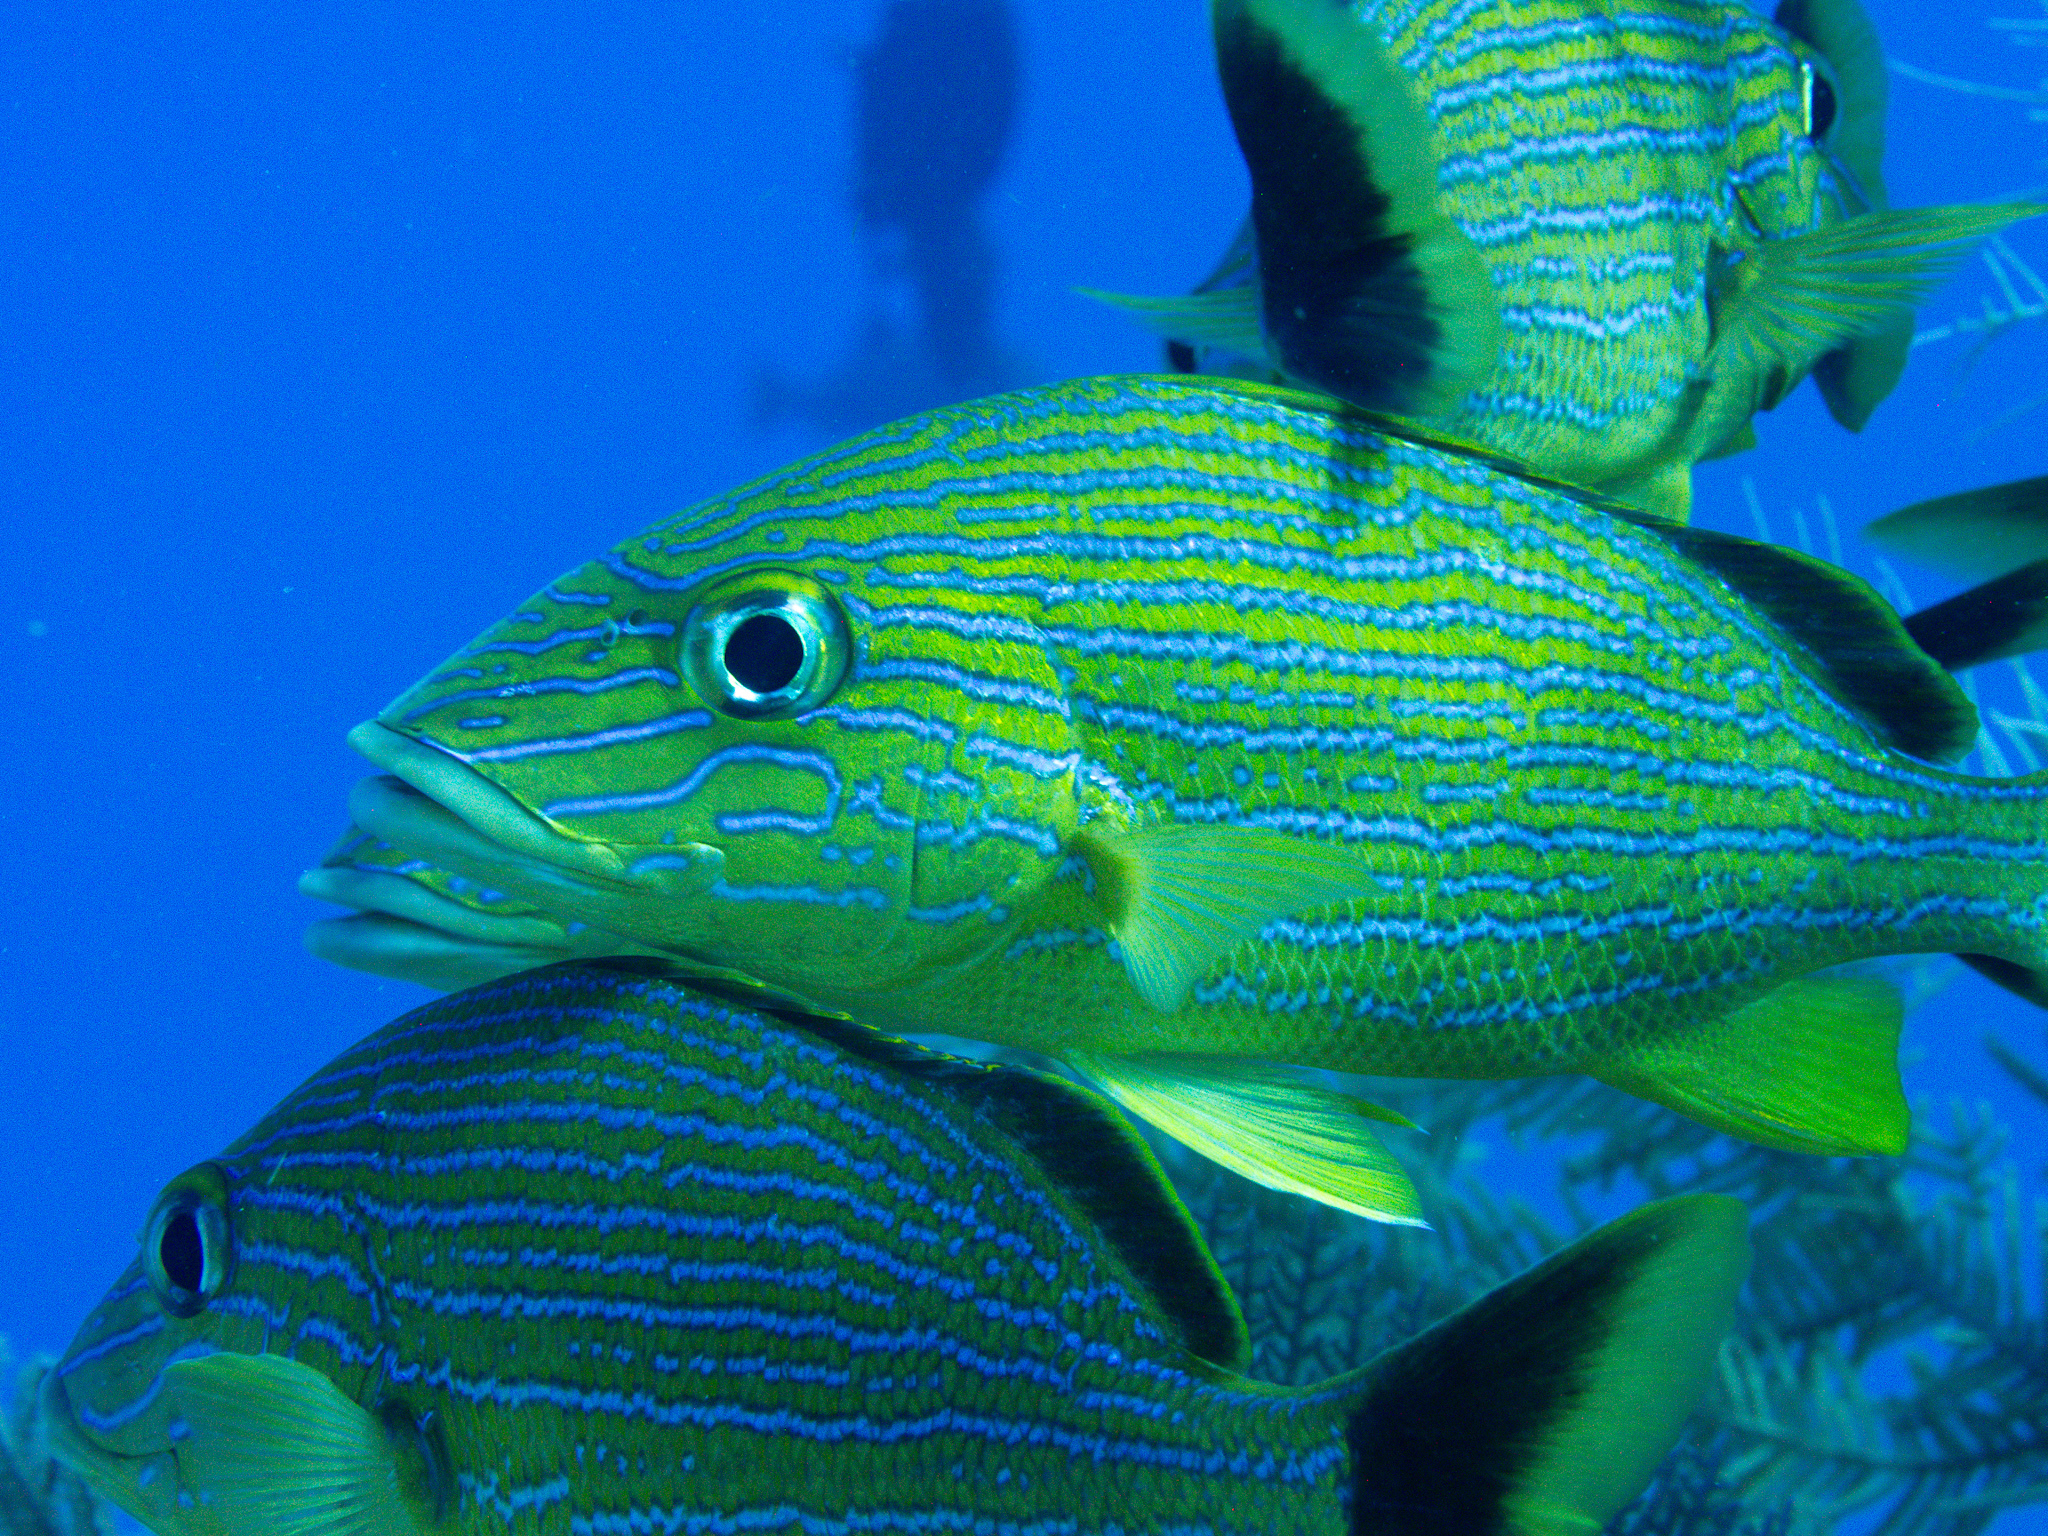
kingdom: Animalia
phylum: Chordata
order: Perciformes
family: Haemulidae
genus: Haemulon
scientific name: Haemulon sciurus
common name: Bluestriped grunt
